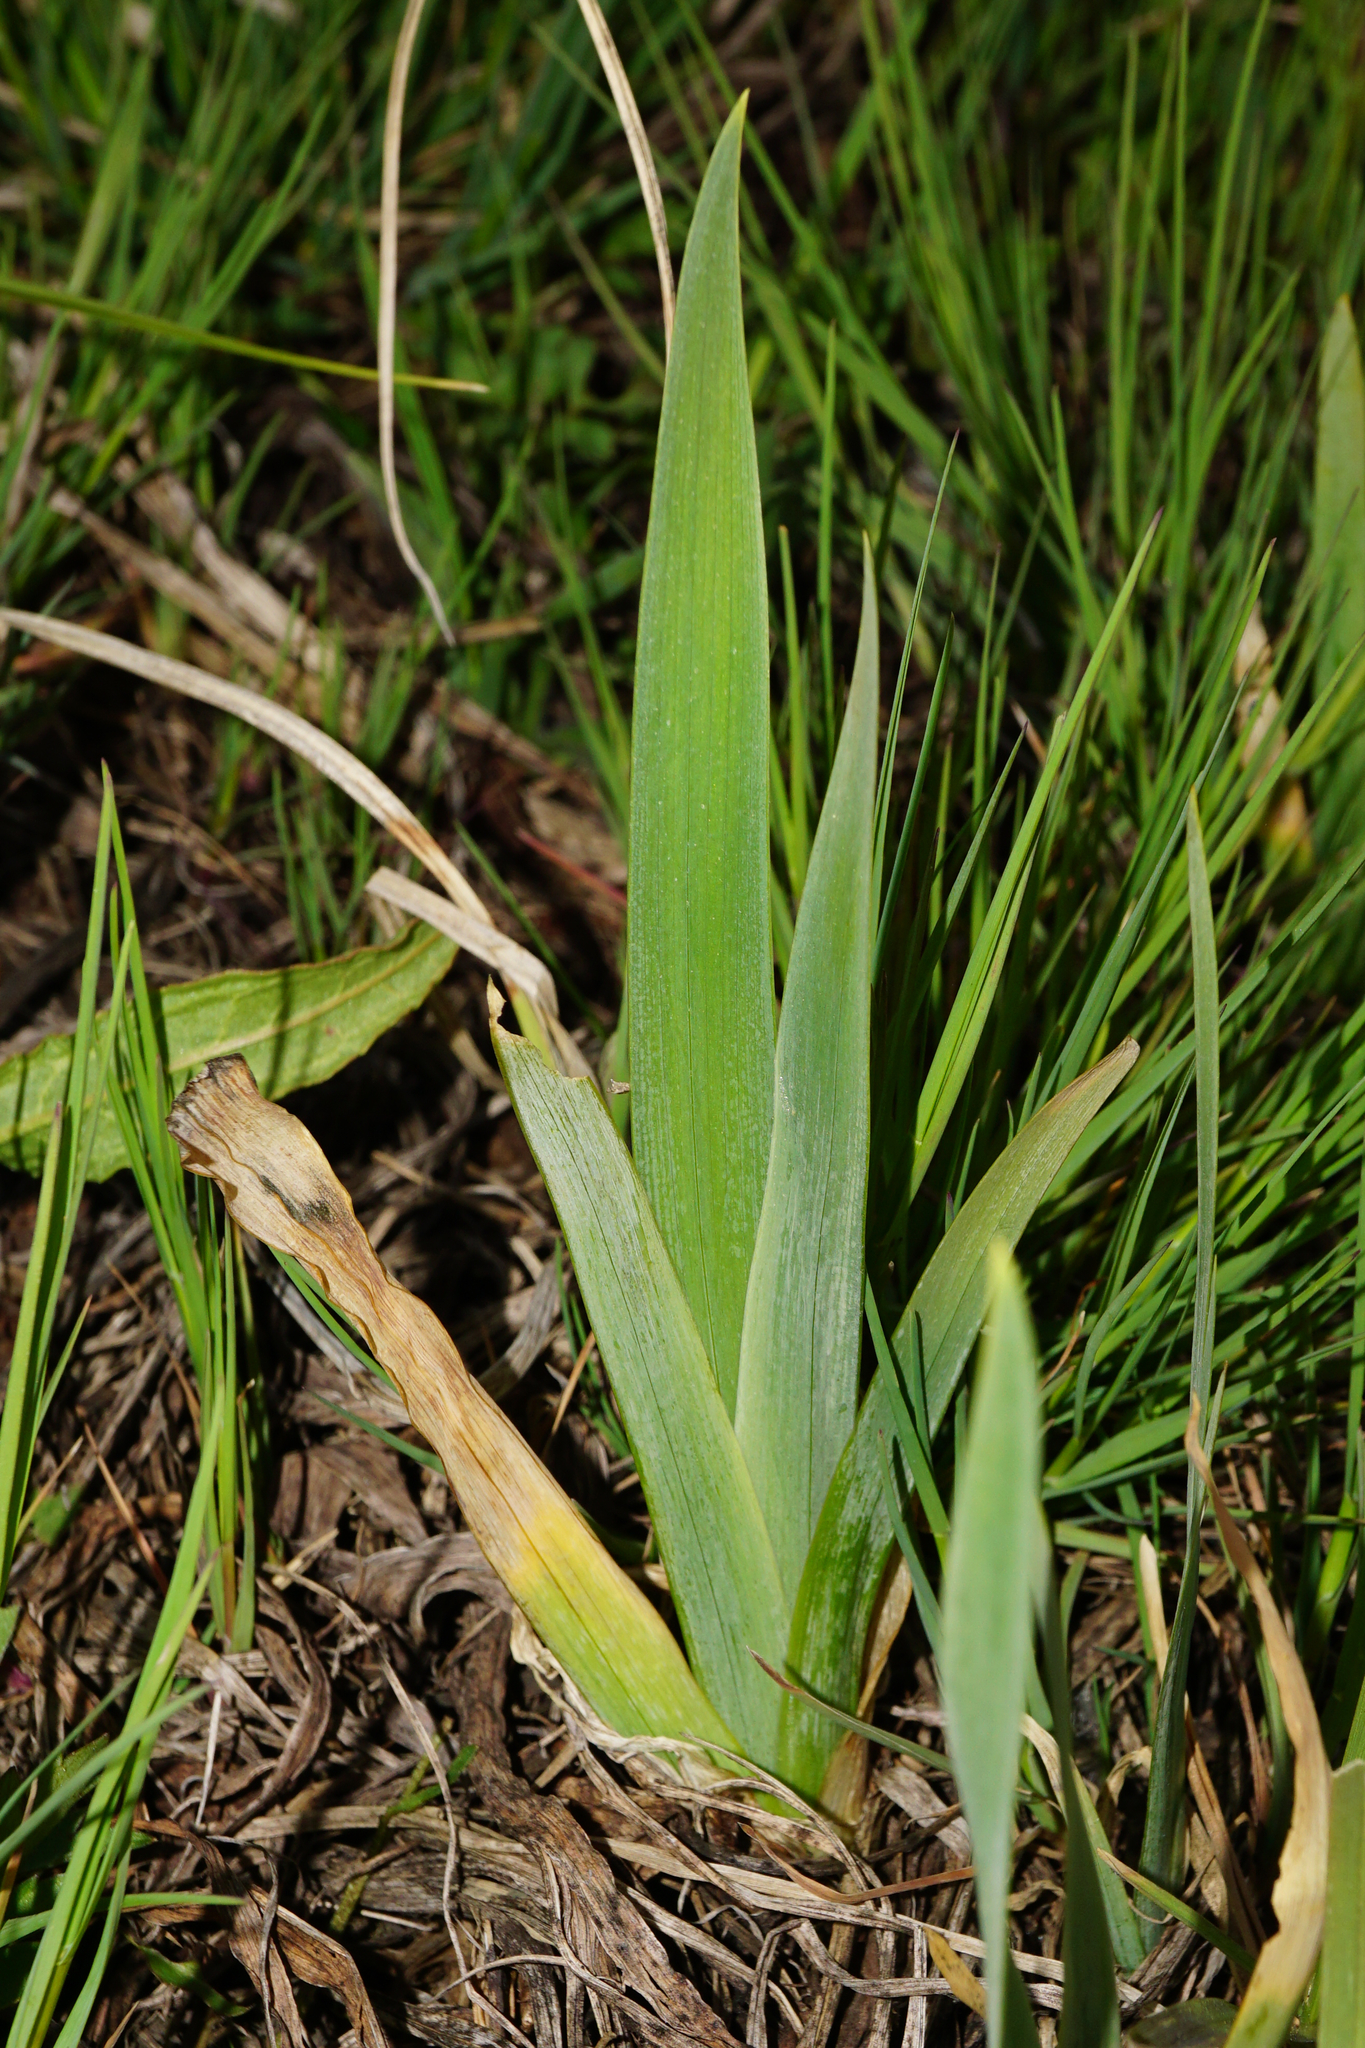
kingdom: Plantae
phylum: Tracheophyta
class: Liliopsida
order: Asparagales
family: Iridaceae
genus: Iris
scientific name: Iris pseudacorus
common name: Yellow flag
